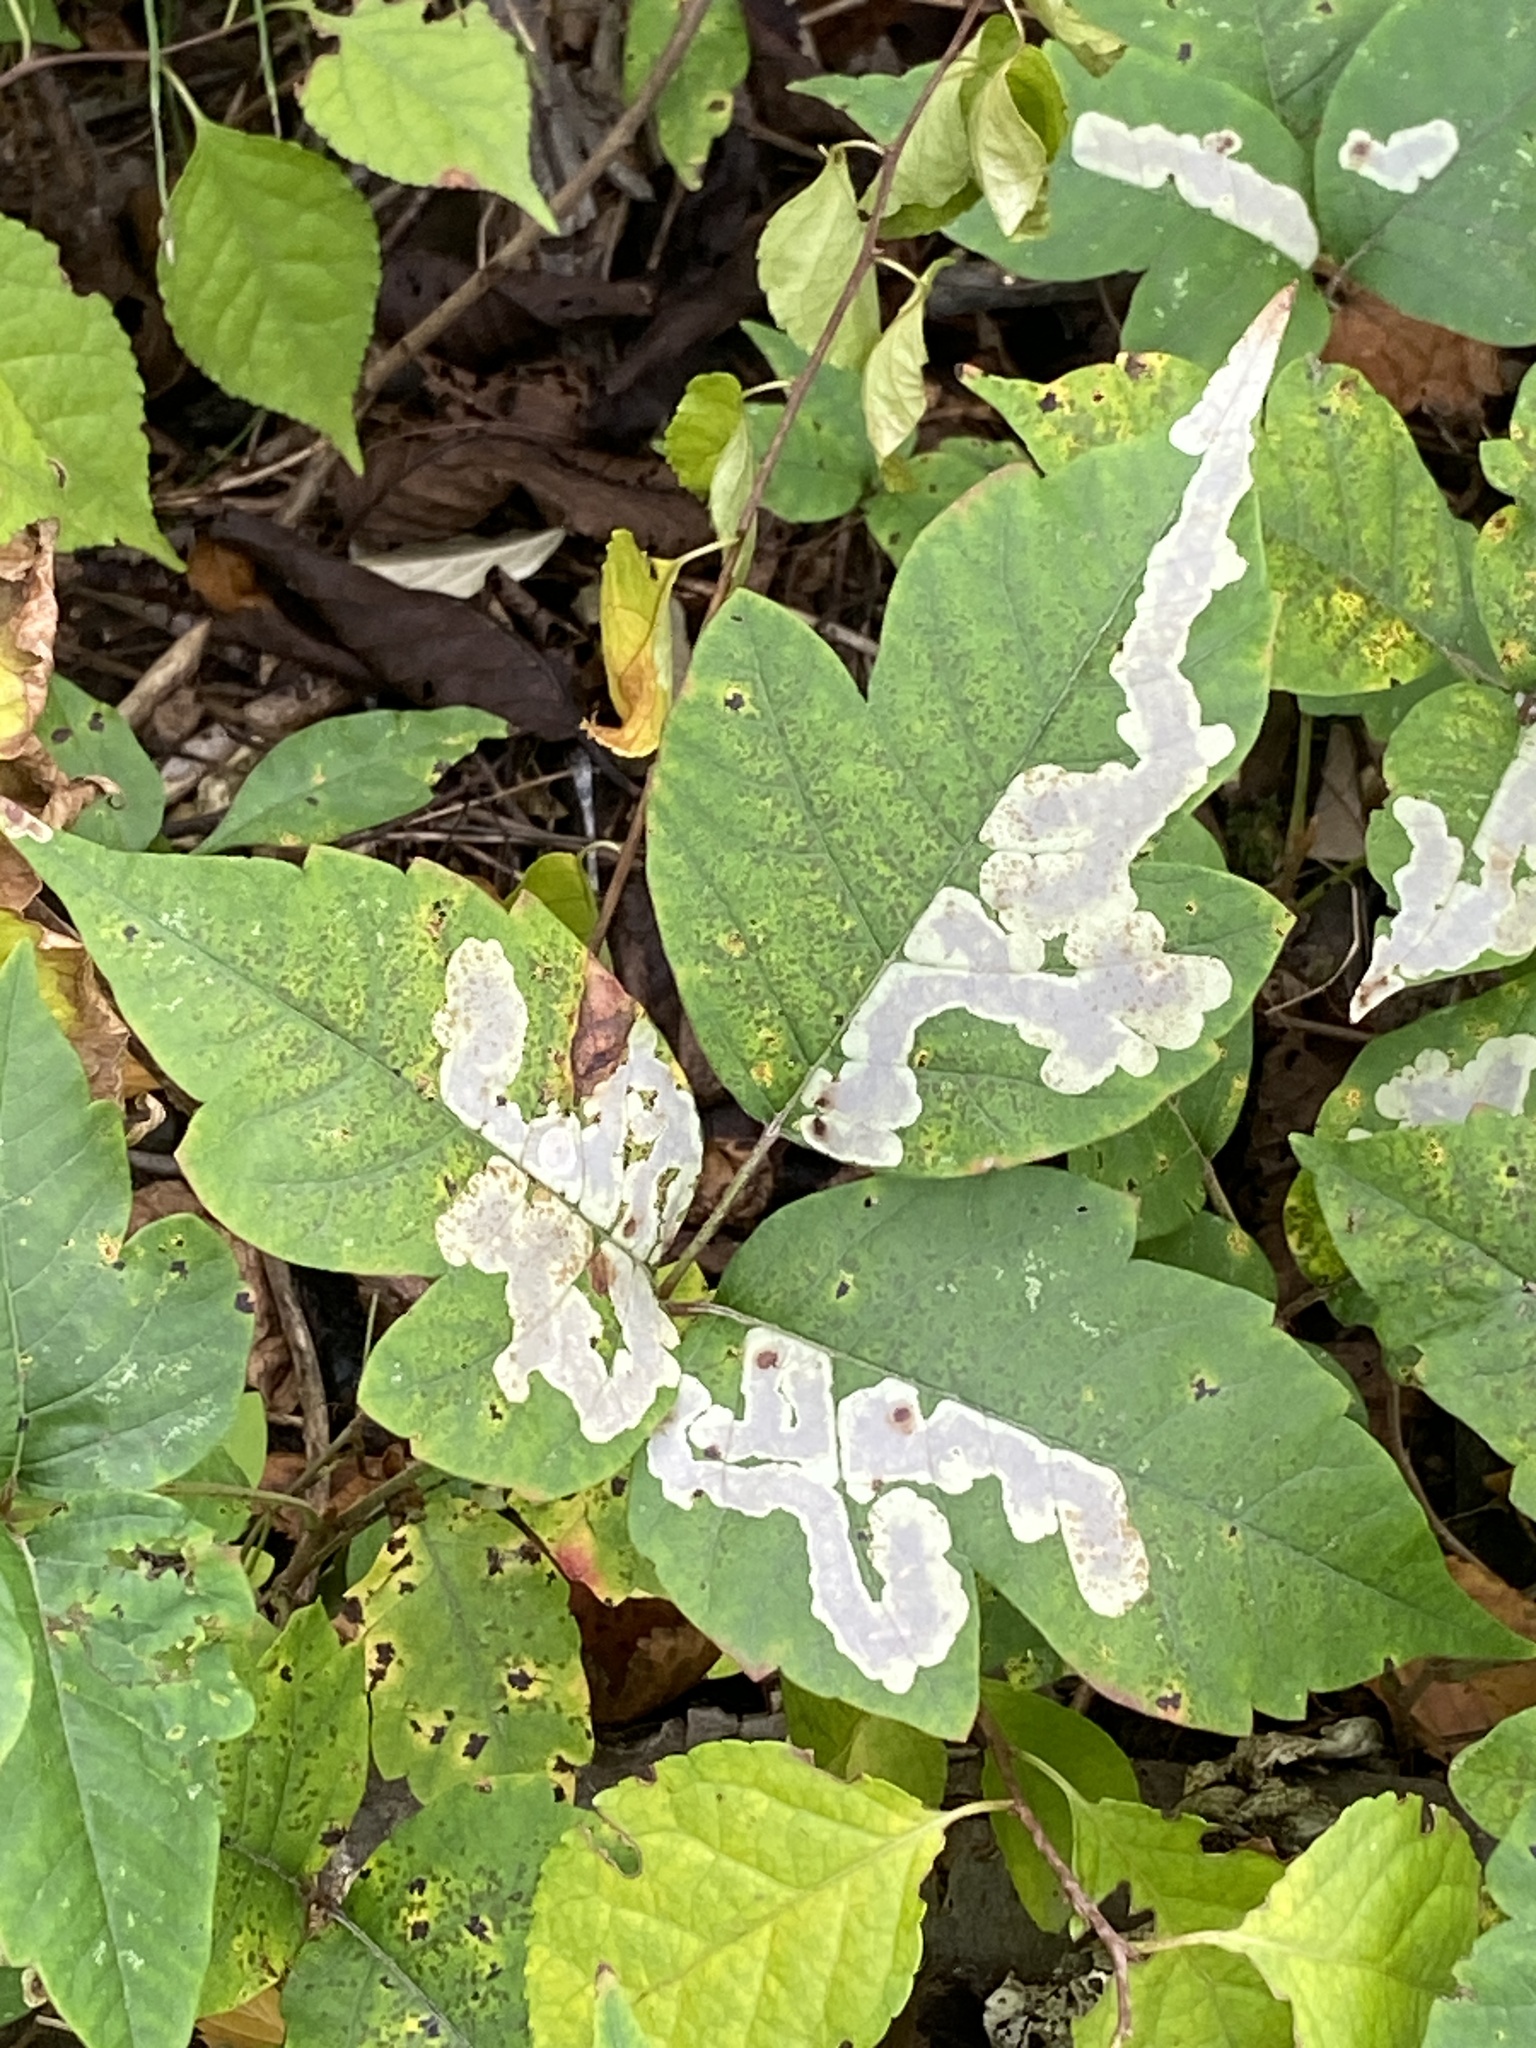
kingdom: Animalia
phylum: Arthropoda
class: Insecta
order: Lepidoptera
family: Gracillariidae
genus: Cameraria
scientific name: Cameraria guttifinitella
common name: Poison ivy leaf-miner moth
